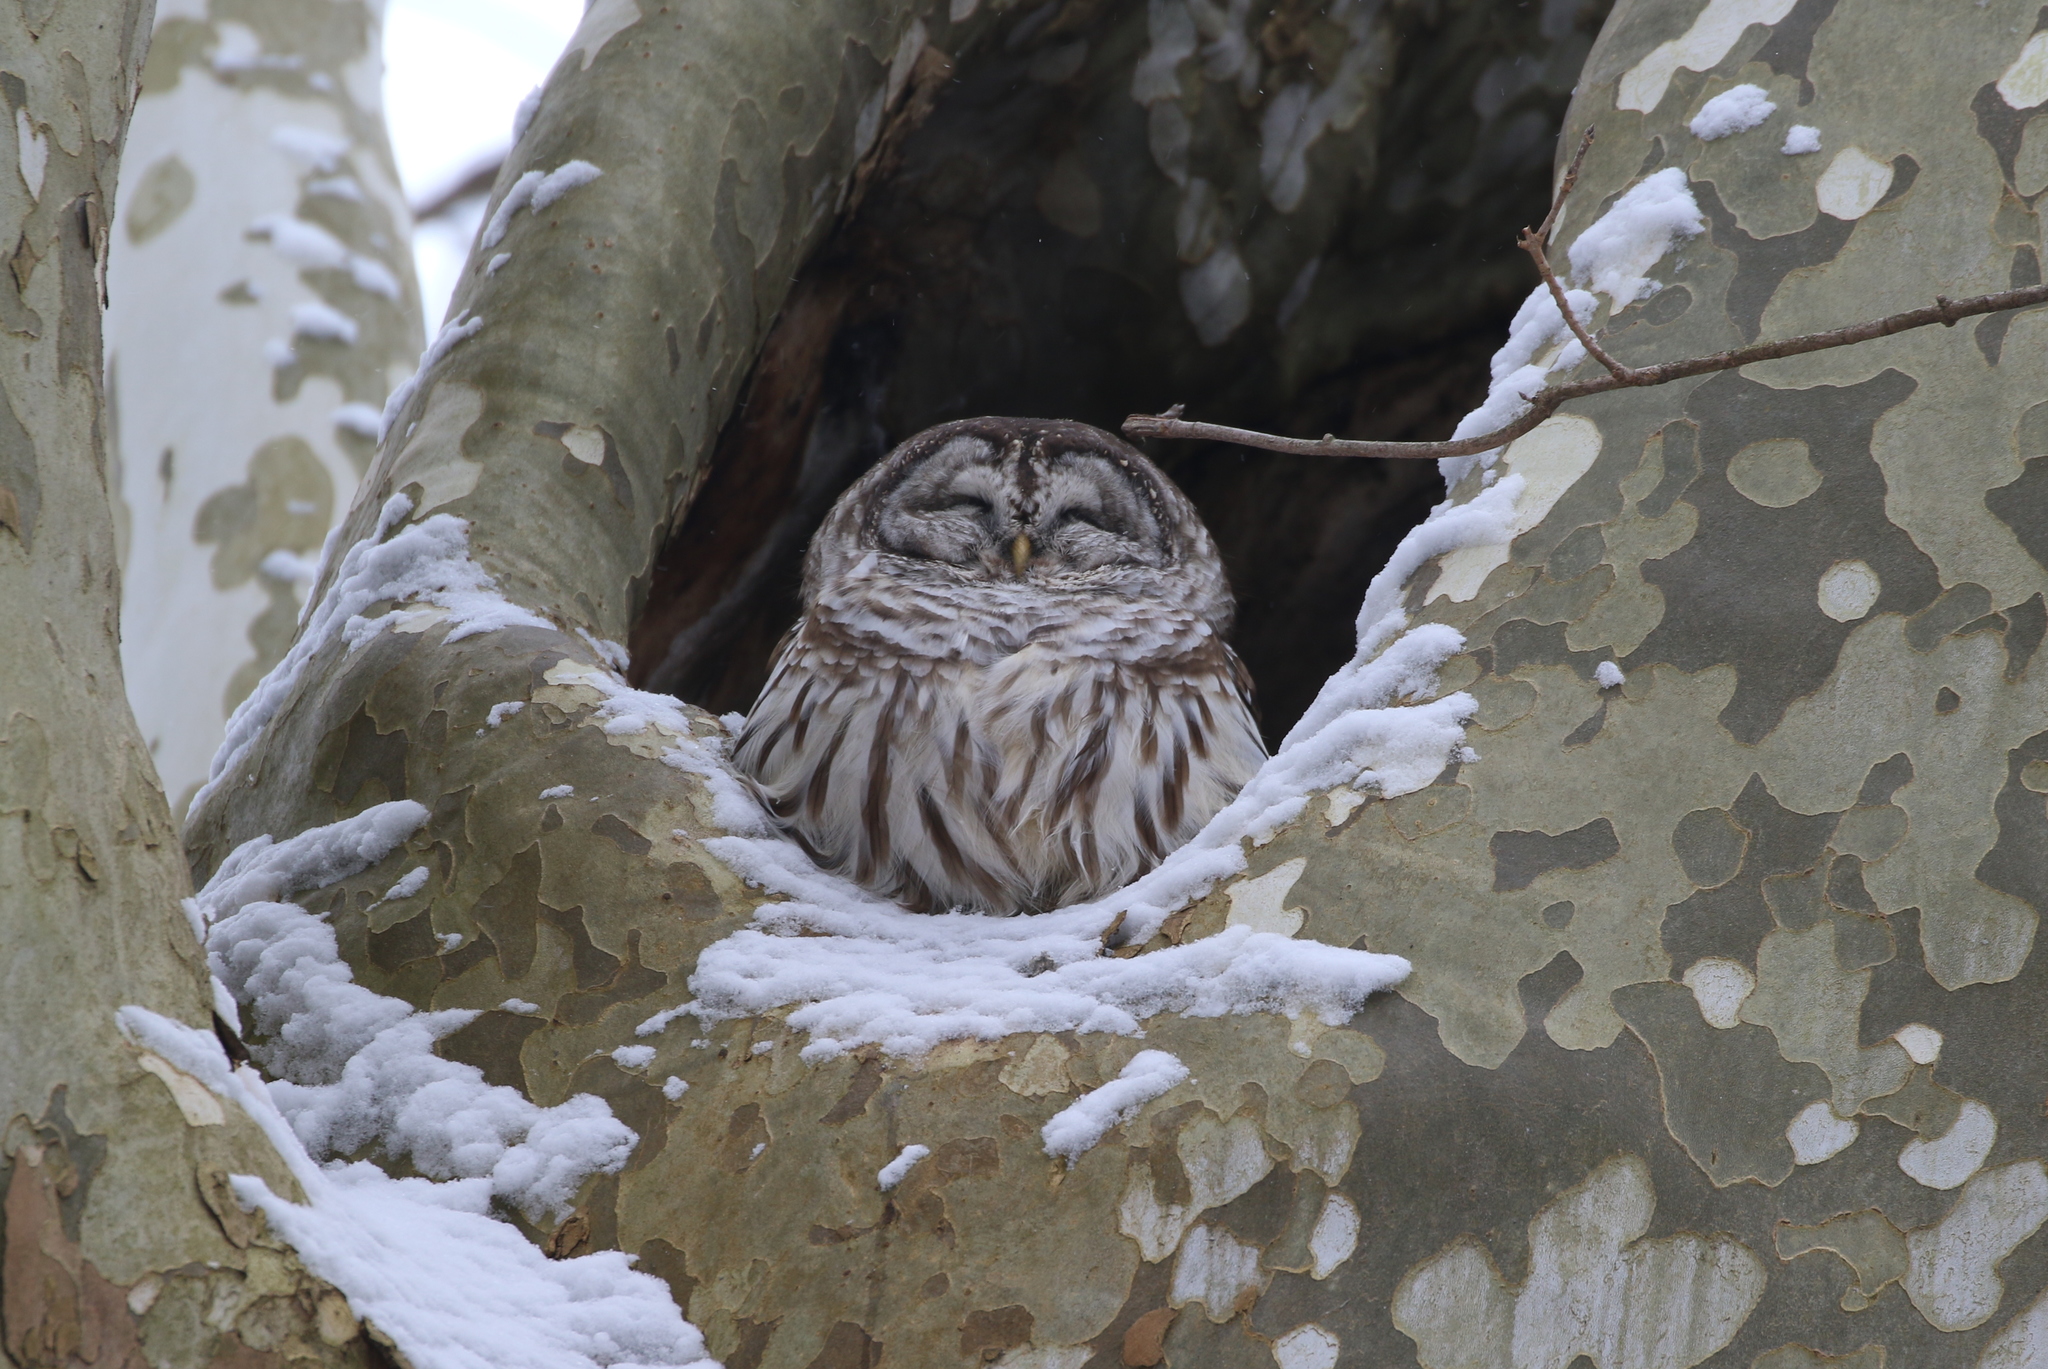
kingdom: Animalia
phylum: Chordata
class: Aves
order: Strigiformes
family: Strigidae
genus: Strix
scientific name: Strix varia
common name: Barred owl
